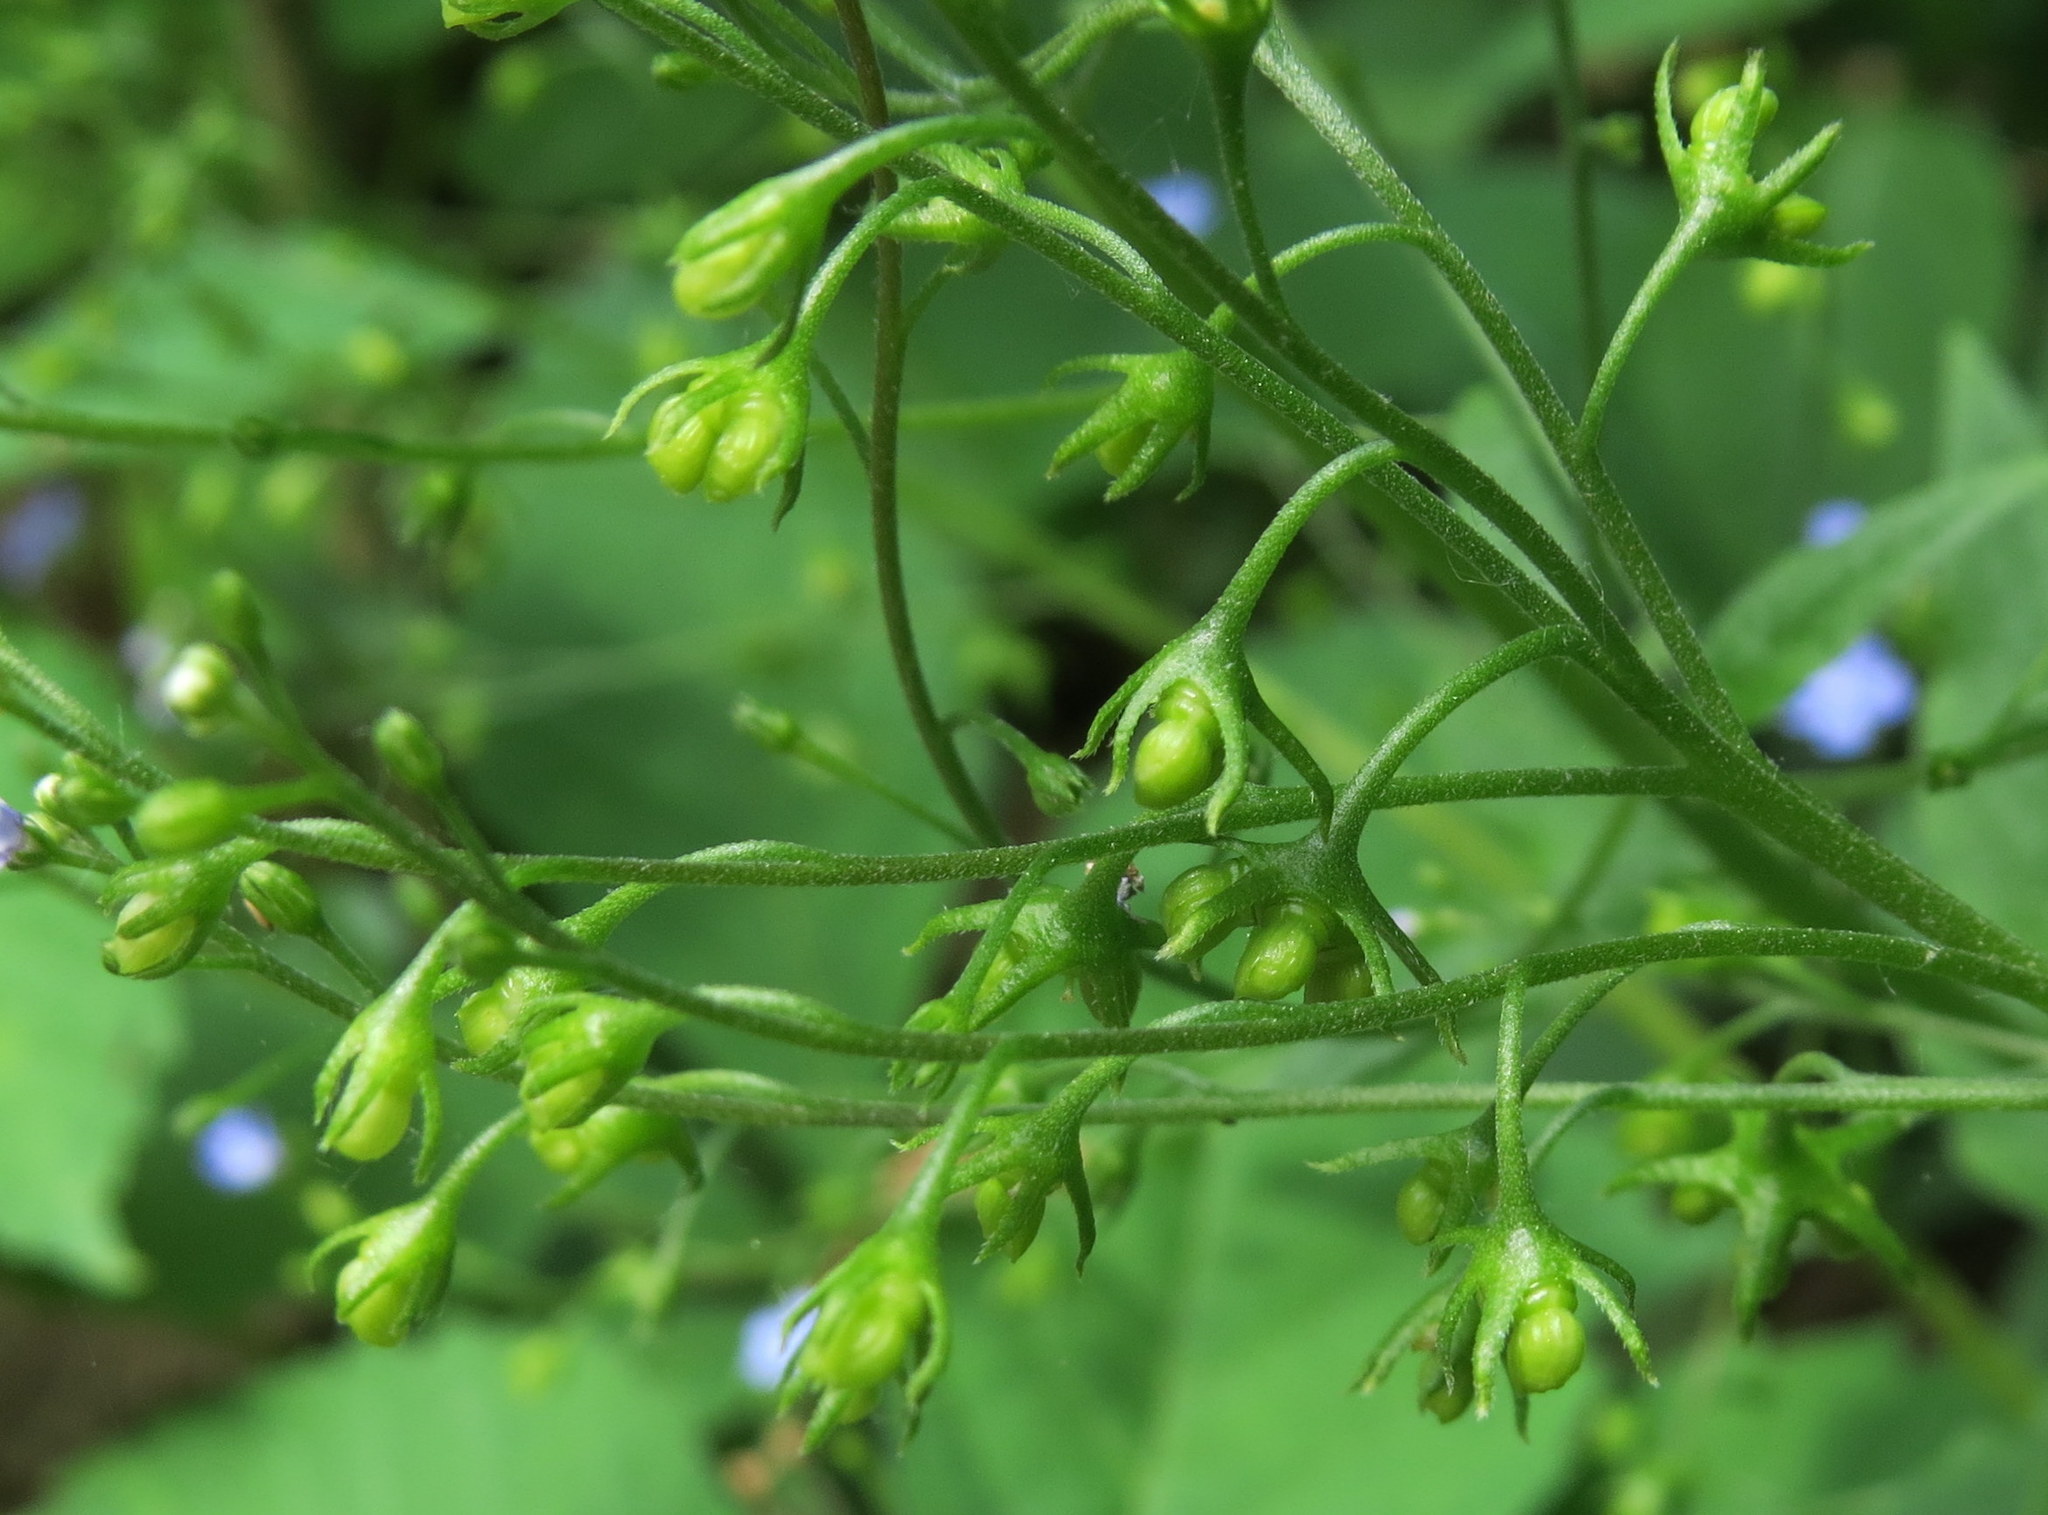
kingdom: Plantae
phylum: Tracheophyta
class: Magnoliopsida
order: Boraginales
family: Boraginaceae
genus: Brunnera
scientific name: Brunnera macrophylla
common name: Great forget-me-not
